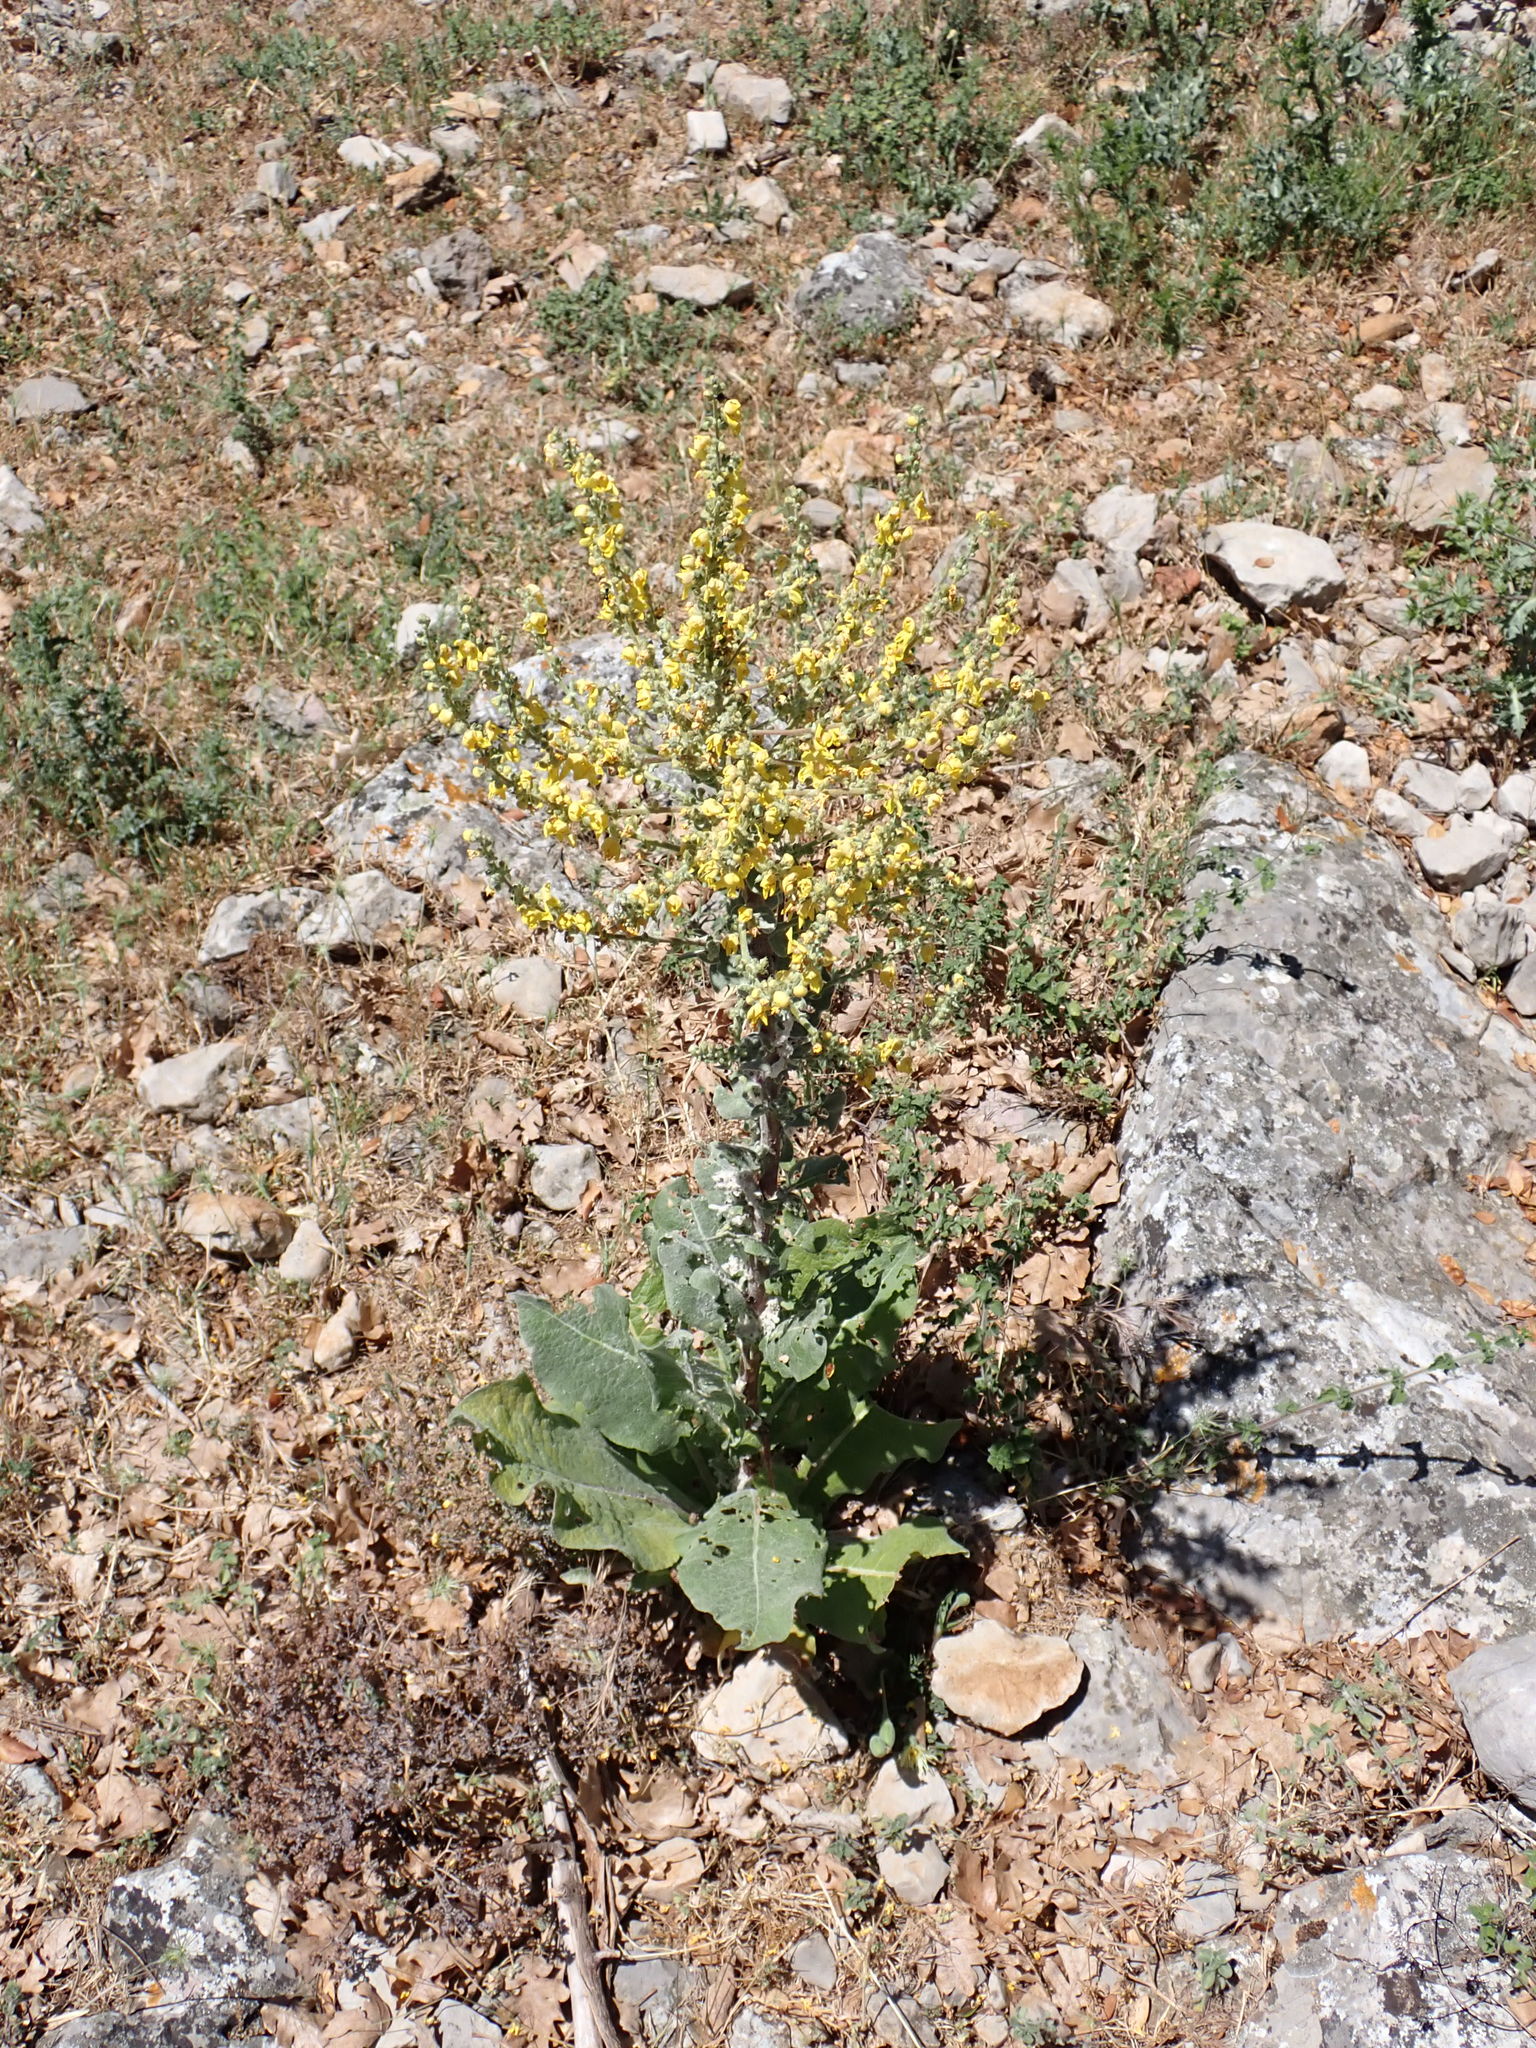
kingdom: Plantae
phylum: Tracheophyta
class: Magnoliopsida
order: Lamiales
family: Scrophulariaceae
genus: Verbascum
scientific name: Verbascum pulverulentum
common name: Broad-leaf mullein
